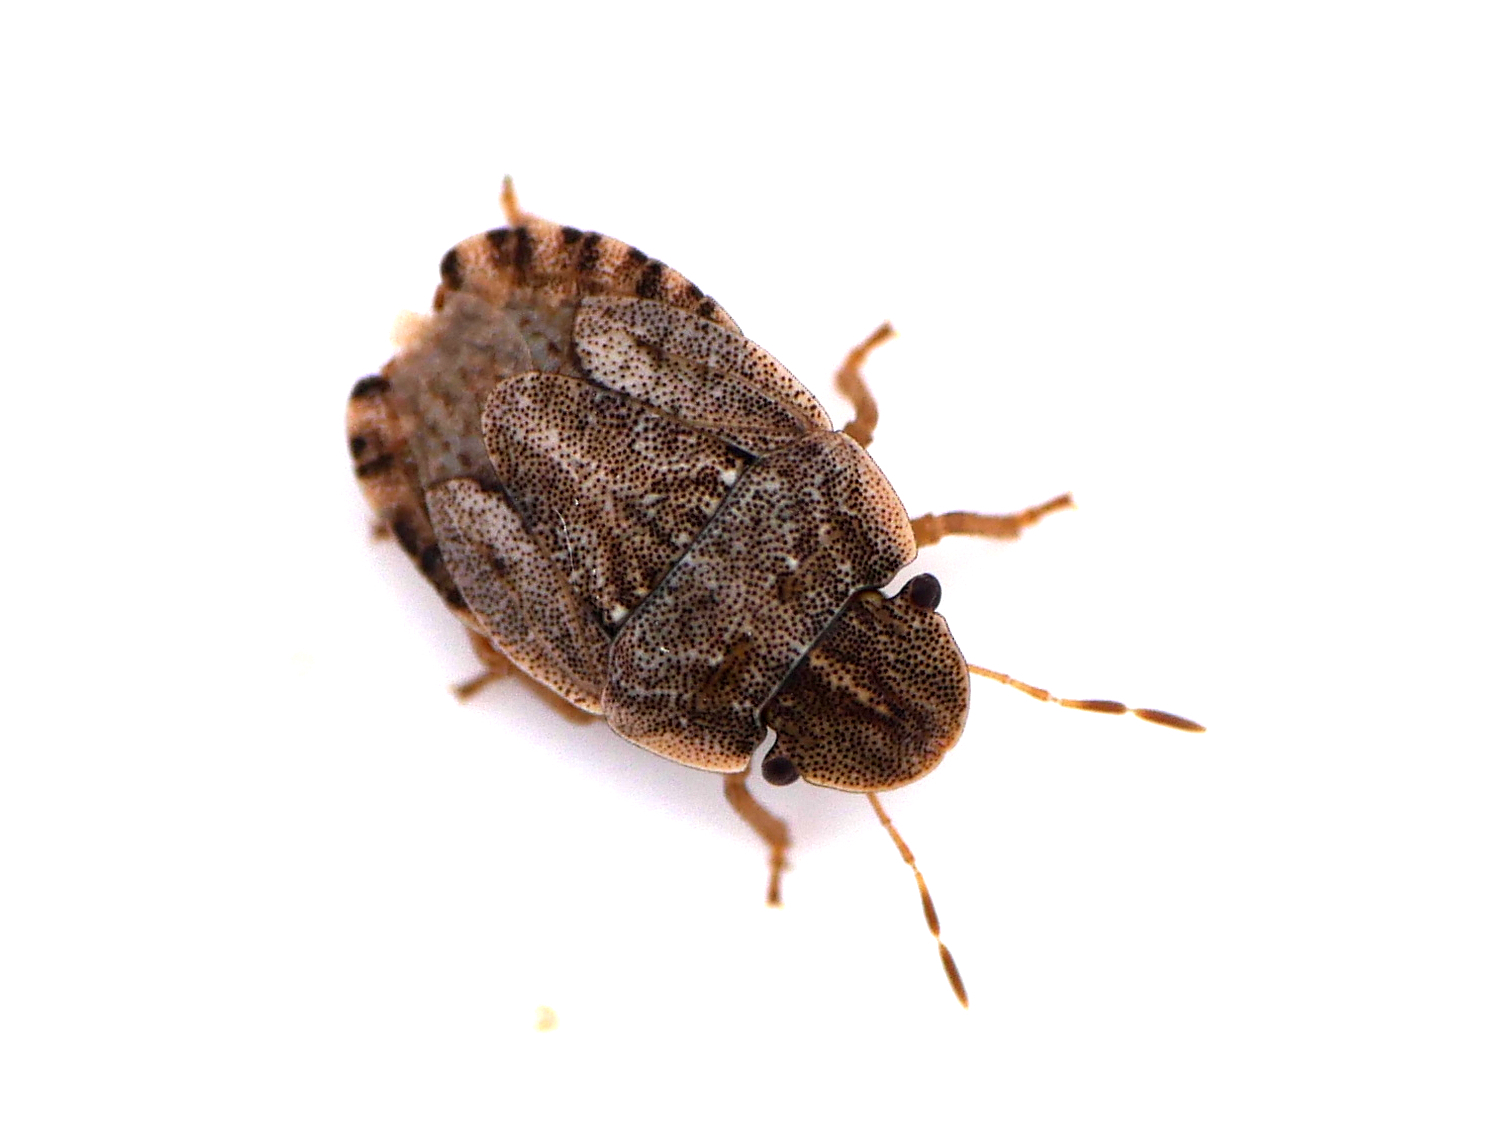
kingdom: Animalia
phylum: Arthropoda
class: Insecta
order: Hemiptera
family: Pentatomidae
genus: Sciocoris
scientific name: Sciocoris cursitans
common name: Sandrunner
